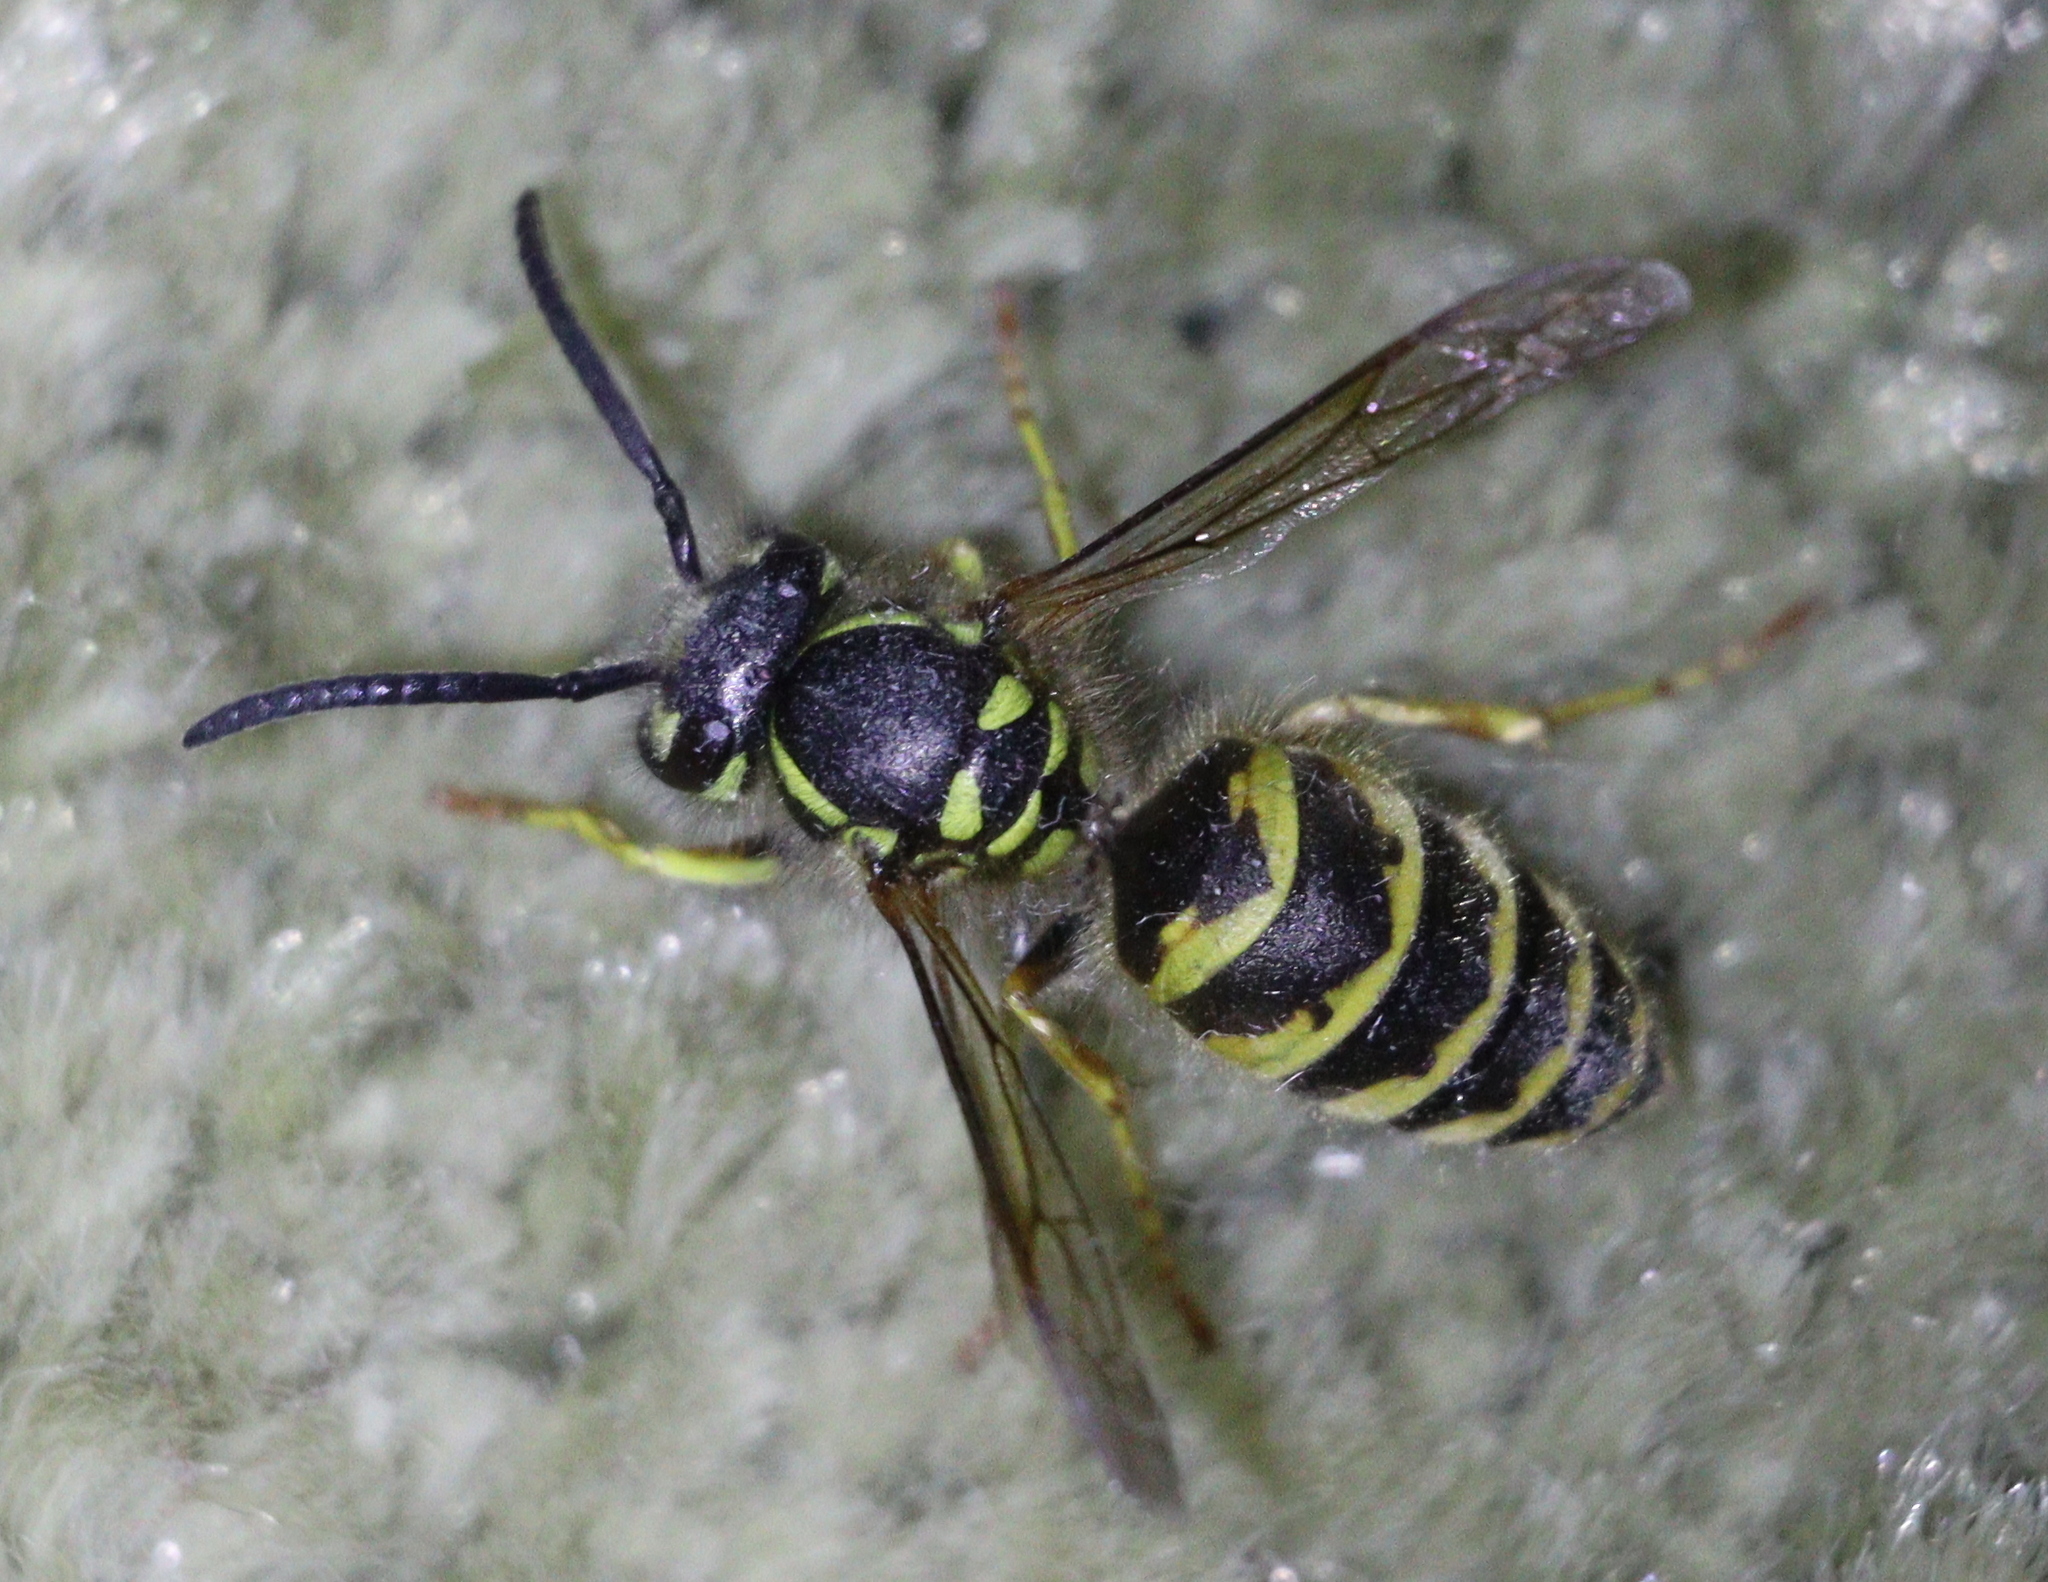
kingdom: Animalia
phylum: Arthropoda
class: Insecta
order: Hymenoptera
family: Vespidae
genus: Vespula
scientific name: Vespula vulgaris
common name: Common wasp
